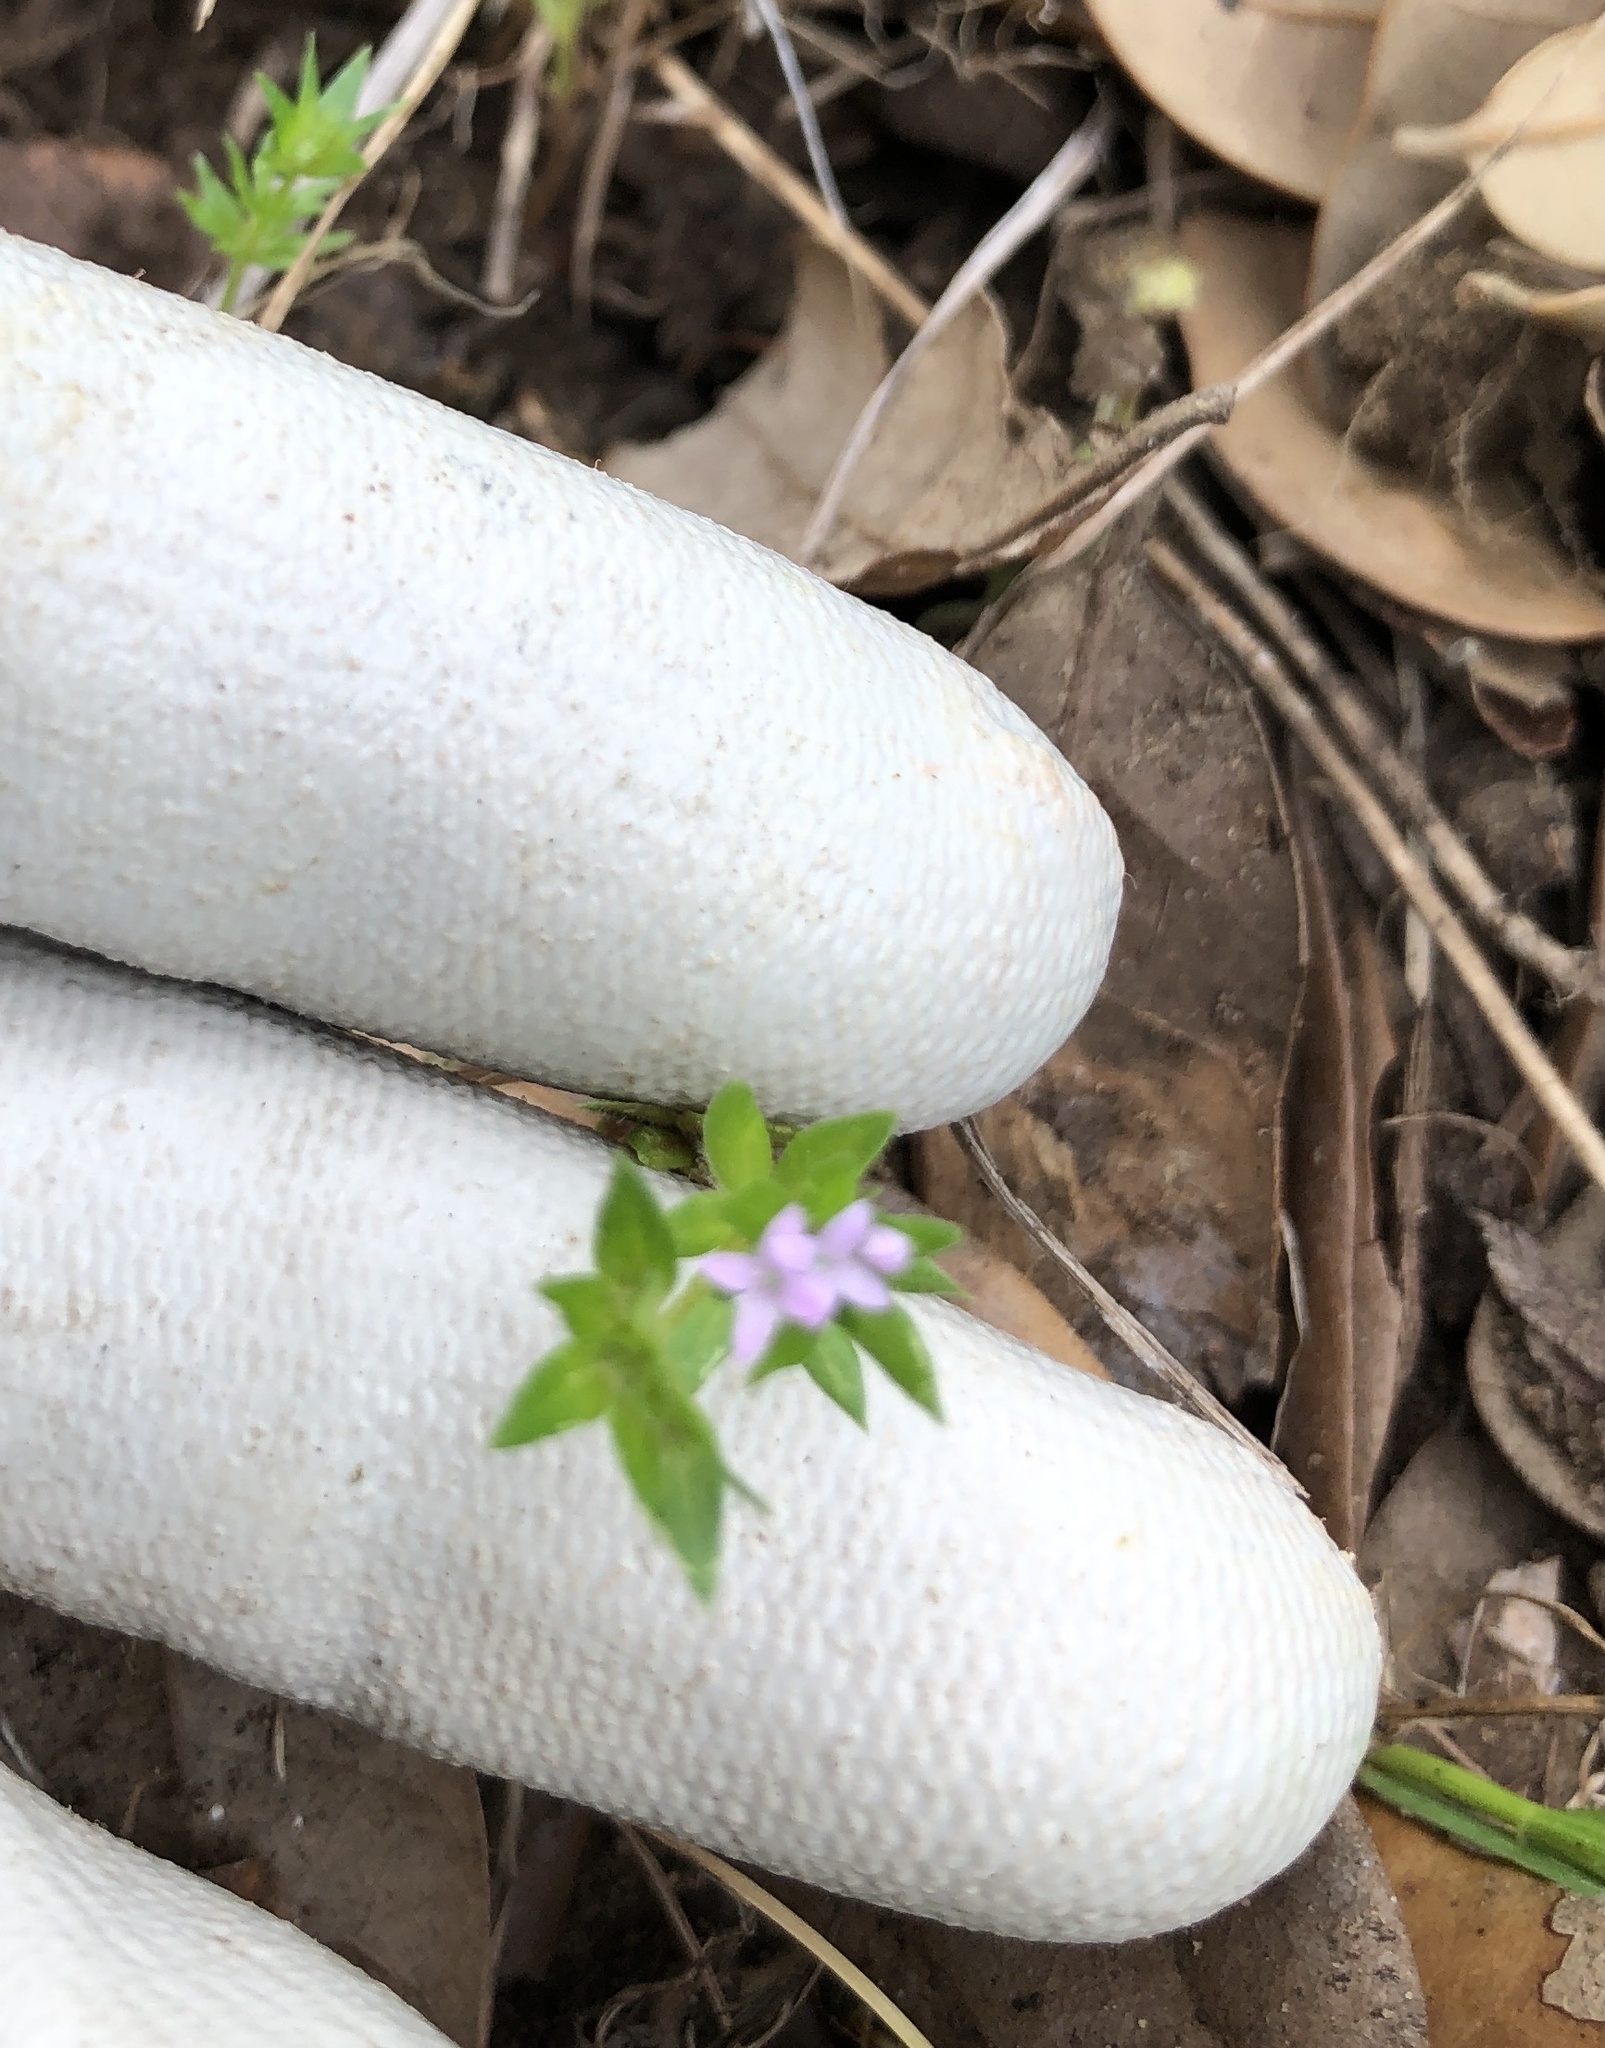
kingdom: Plantae
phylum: Tracheophyta
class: Magnoliopsida
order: Gentianales
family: Rubiaceae
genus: Sherardia
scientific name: Sherardia arvensis
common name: Field madder
